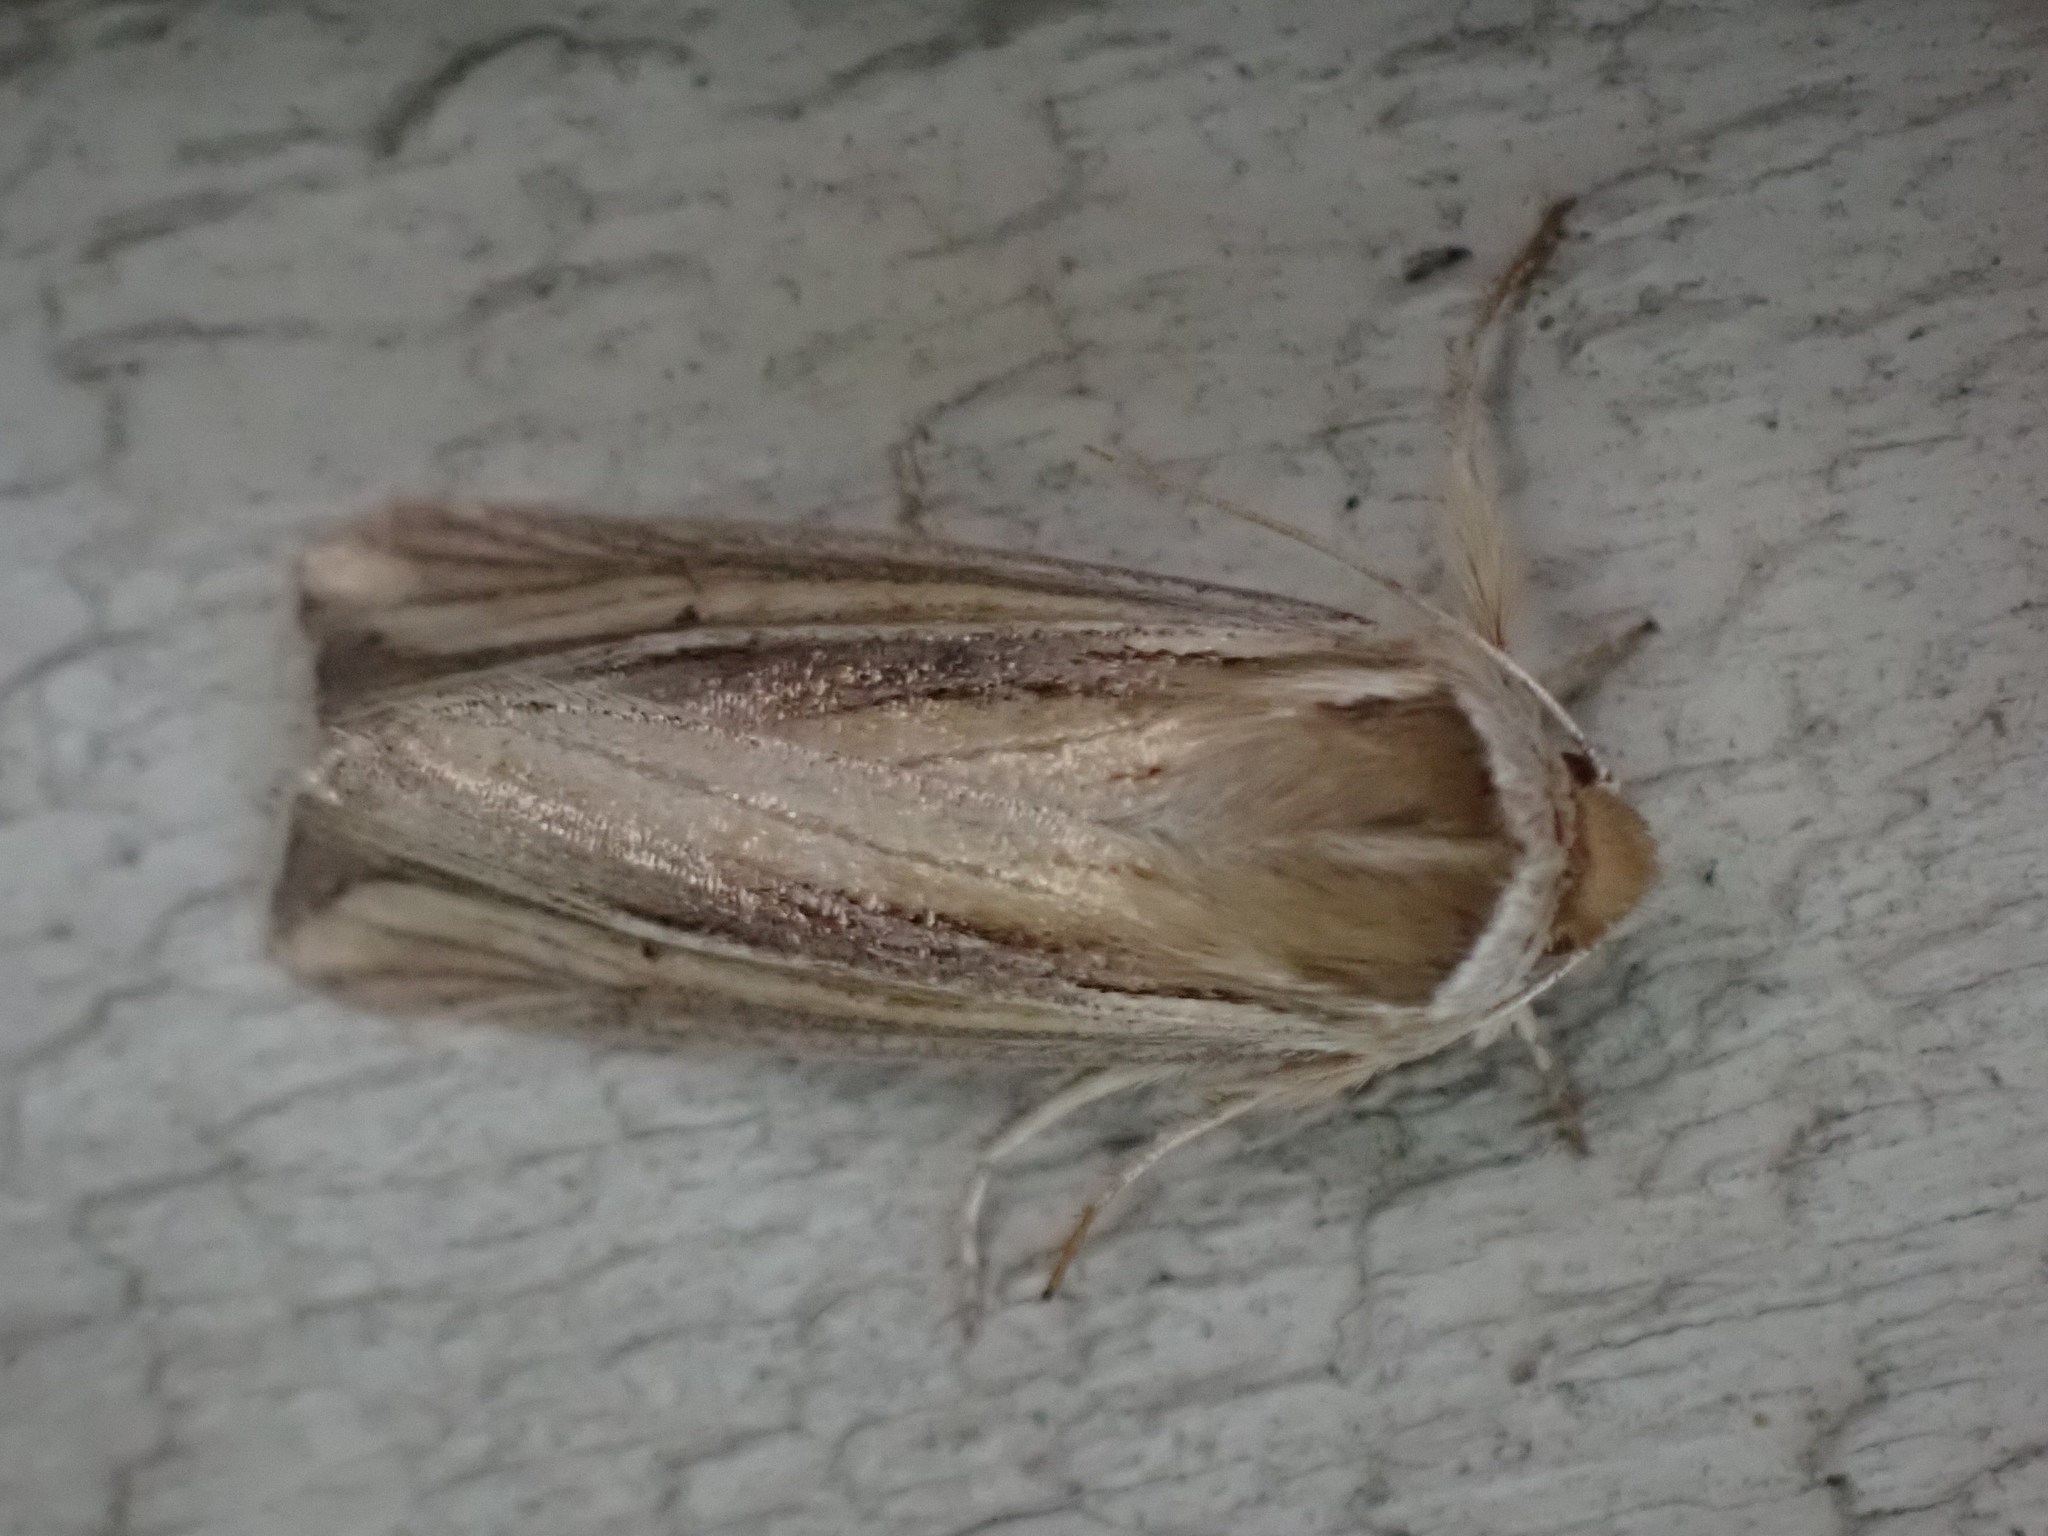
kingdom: Animalia
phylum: Arthropoda
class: Insecta
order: Lepidoptera
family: Noctuidae
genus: Dargida
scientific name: Dargida diffusa
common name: Wheat head armyworm
